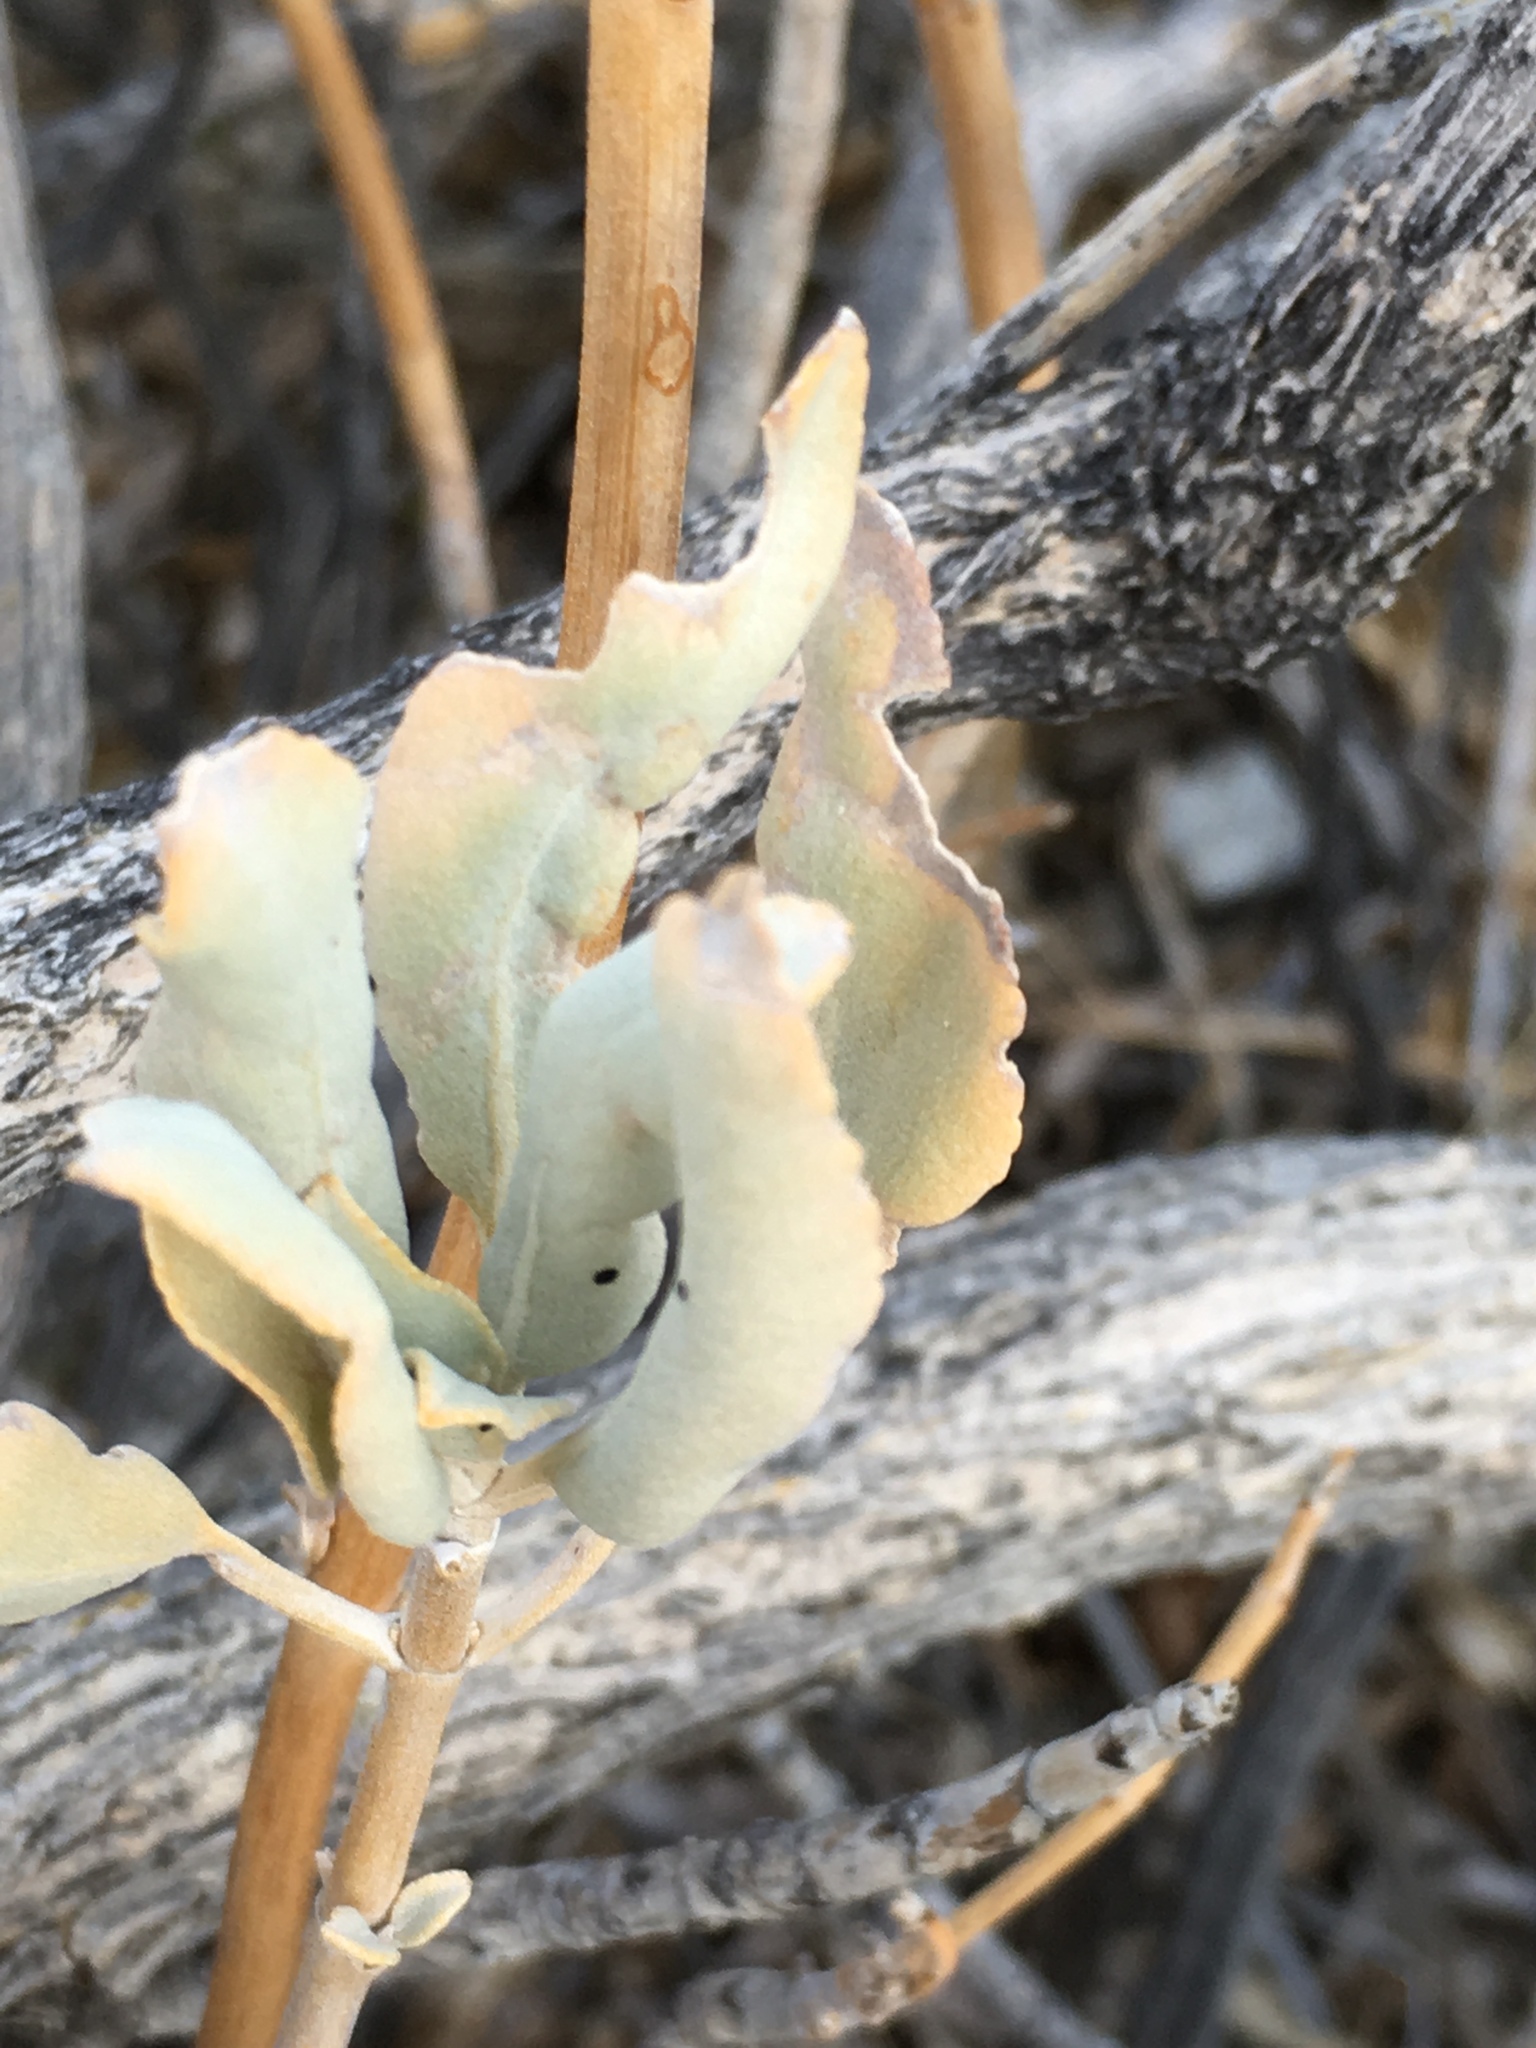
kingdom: Plantae
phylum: Tracheophyta
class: Magnoliopsida
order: Lamiales
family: Lamiaceae
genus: Salvia
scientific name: Salvia vaseyi
